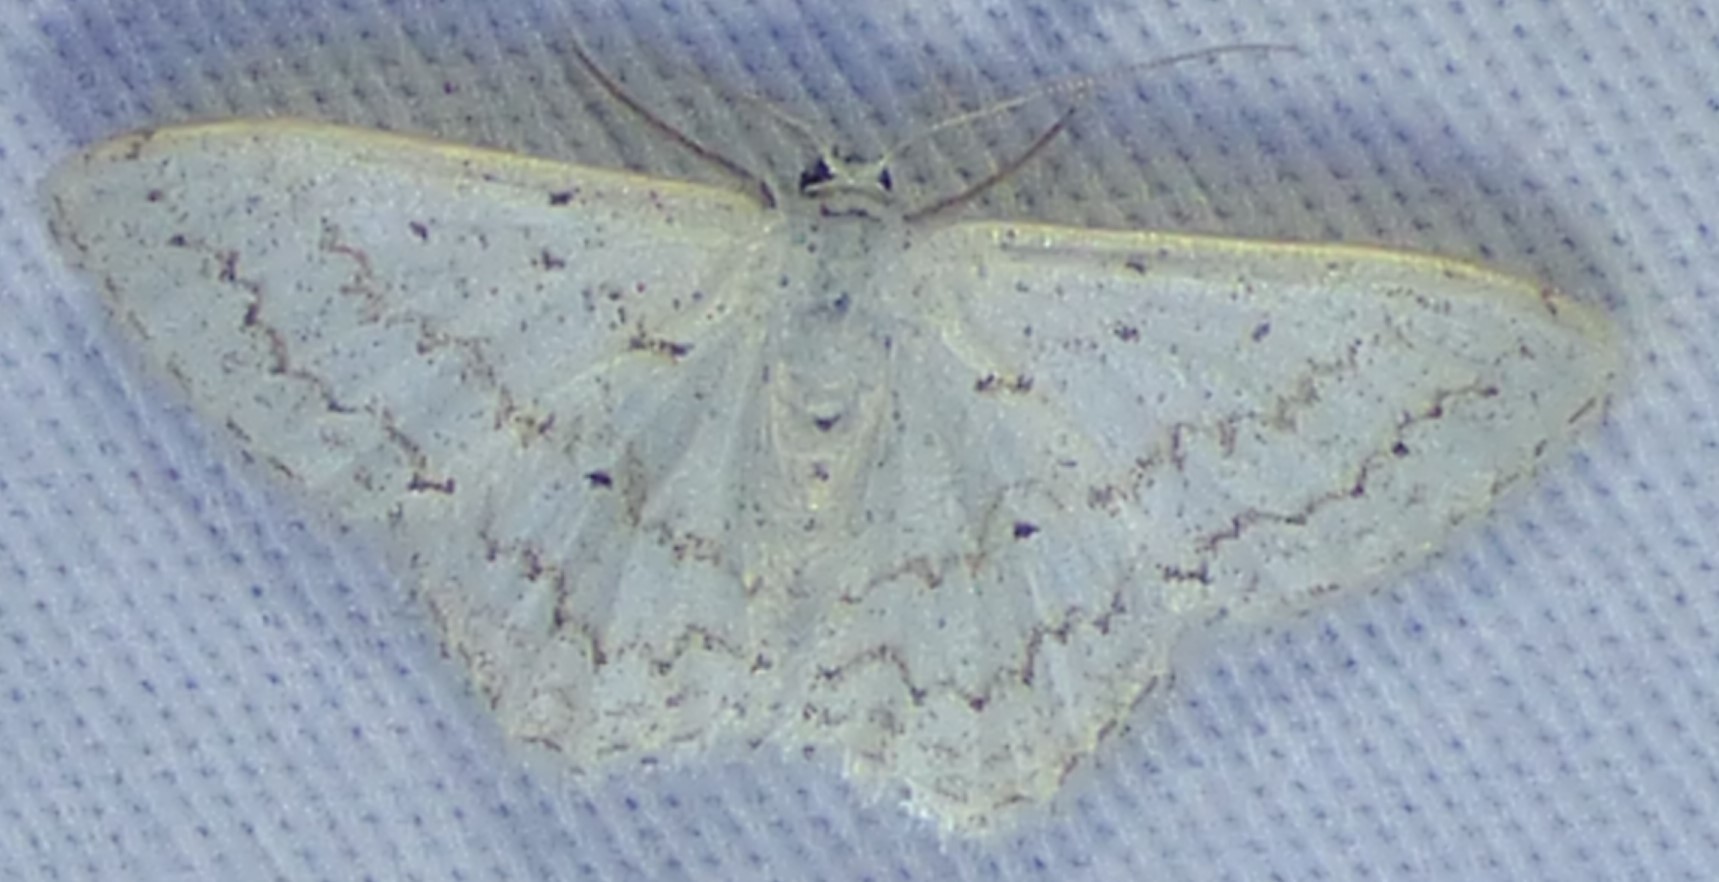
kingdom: Animalia
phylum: Arthropoda
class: Insecta
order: Lepidoptera
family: Geometridae
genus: Idaea
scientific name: Idaea tacturata
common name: Dot-lined wave
